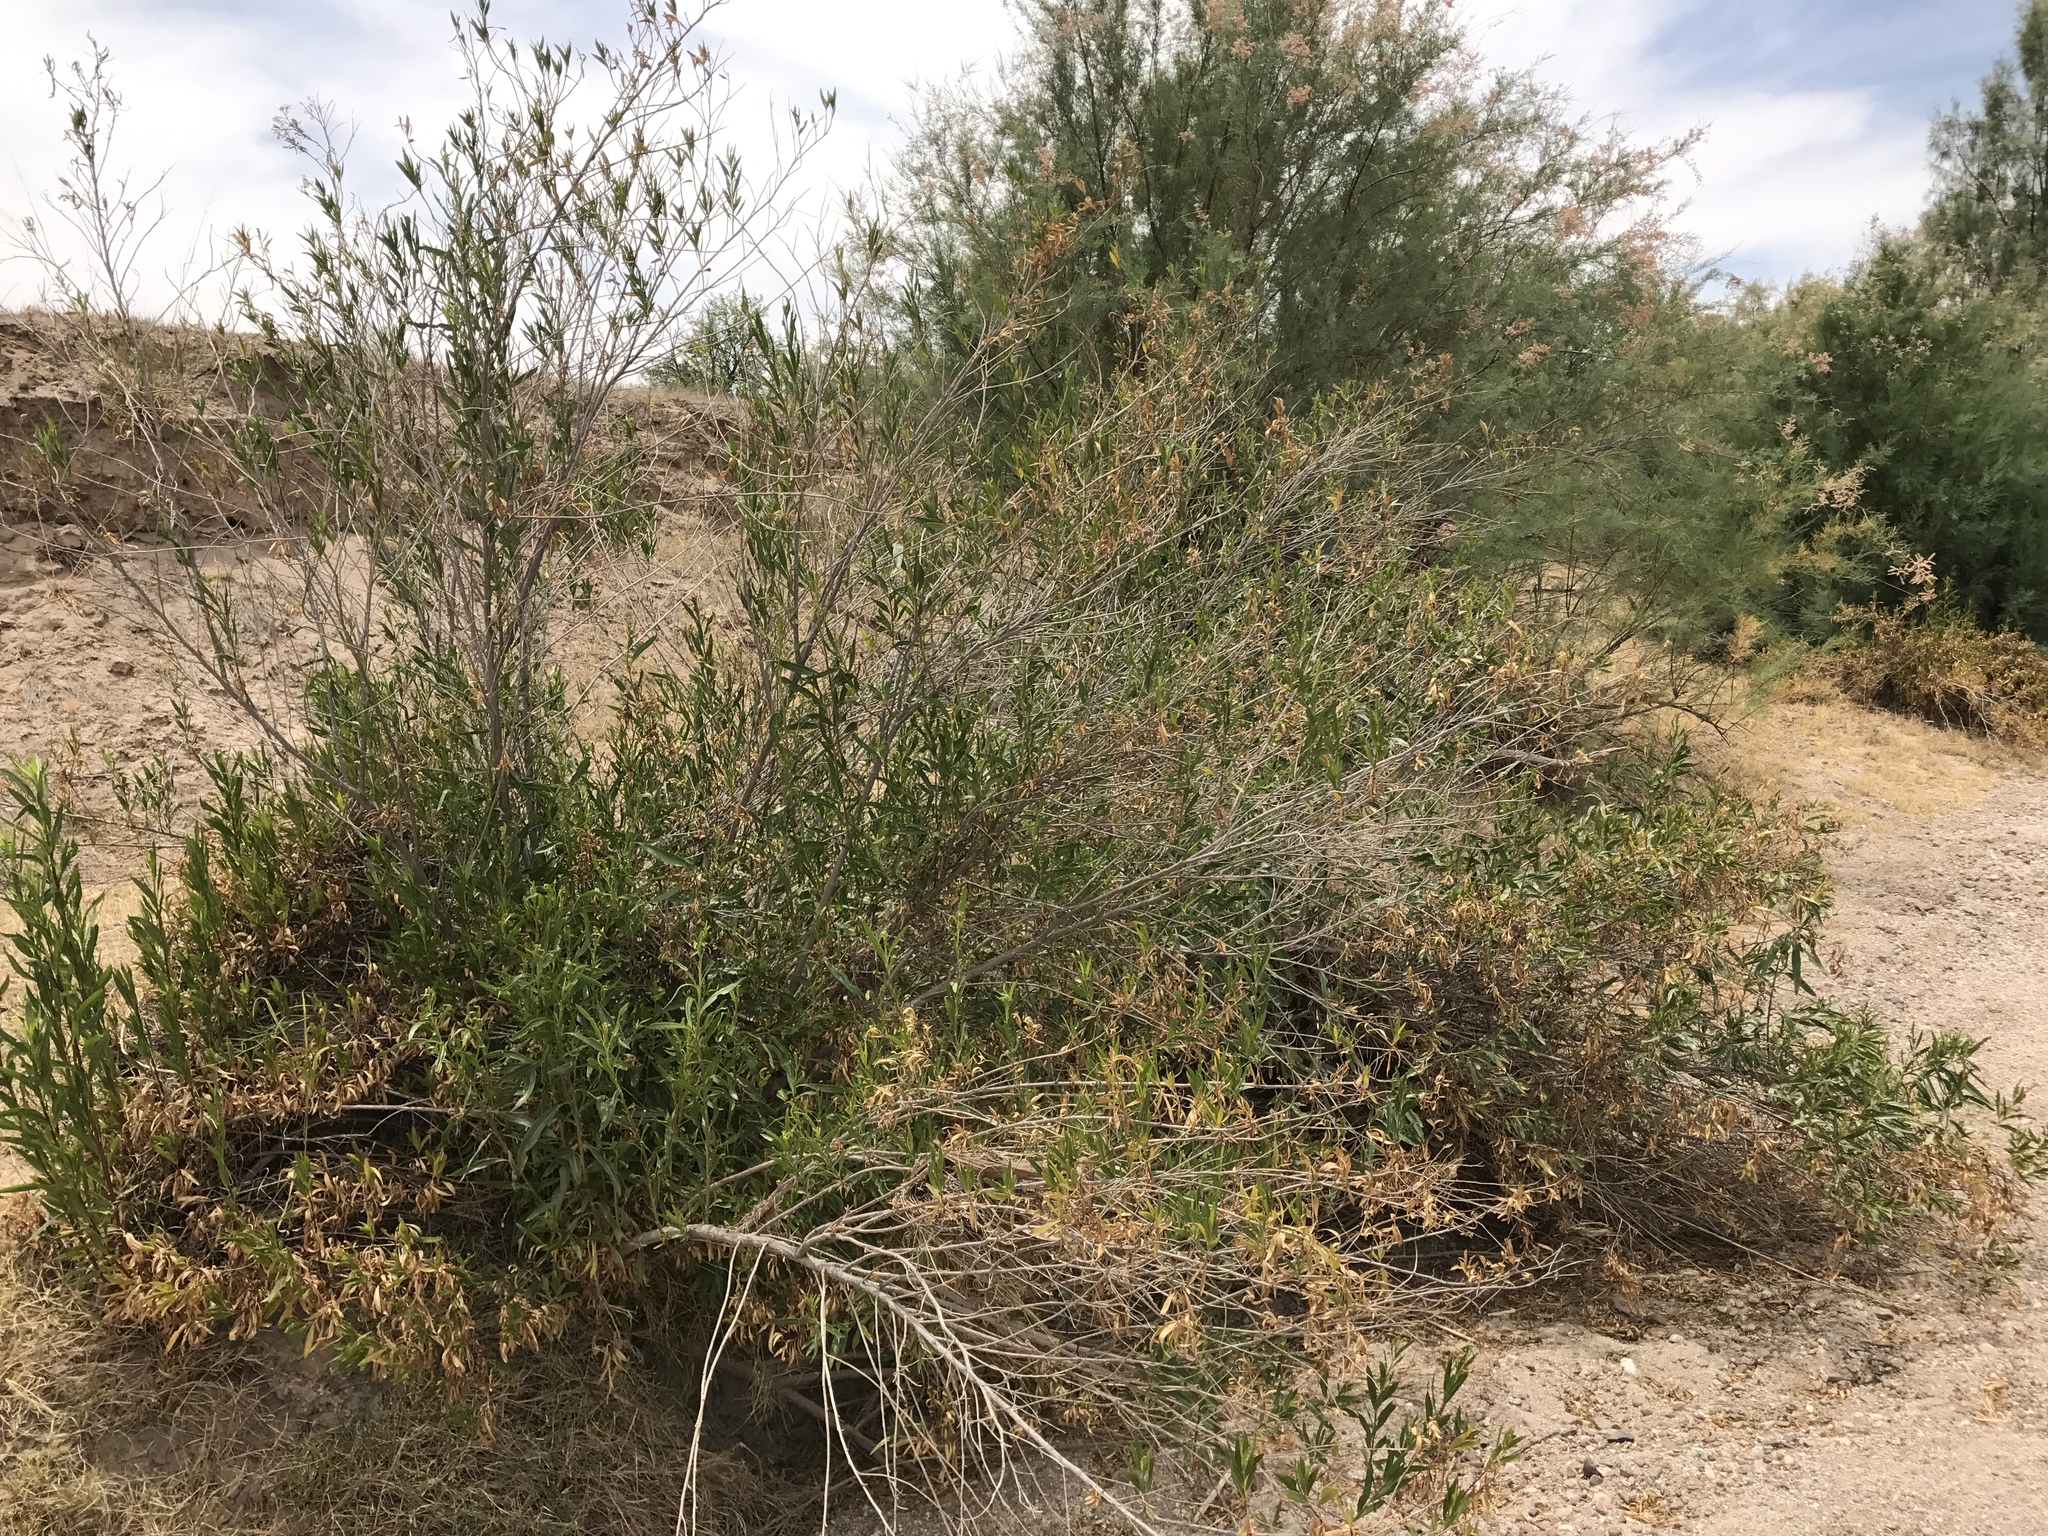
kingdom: Plantae
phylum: Tracheophyta
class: Magnoliopsida
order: Asterales
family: Asteraceae
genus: Baccharis
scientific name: Baccharis salicifolia
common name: Sticky baccharis
